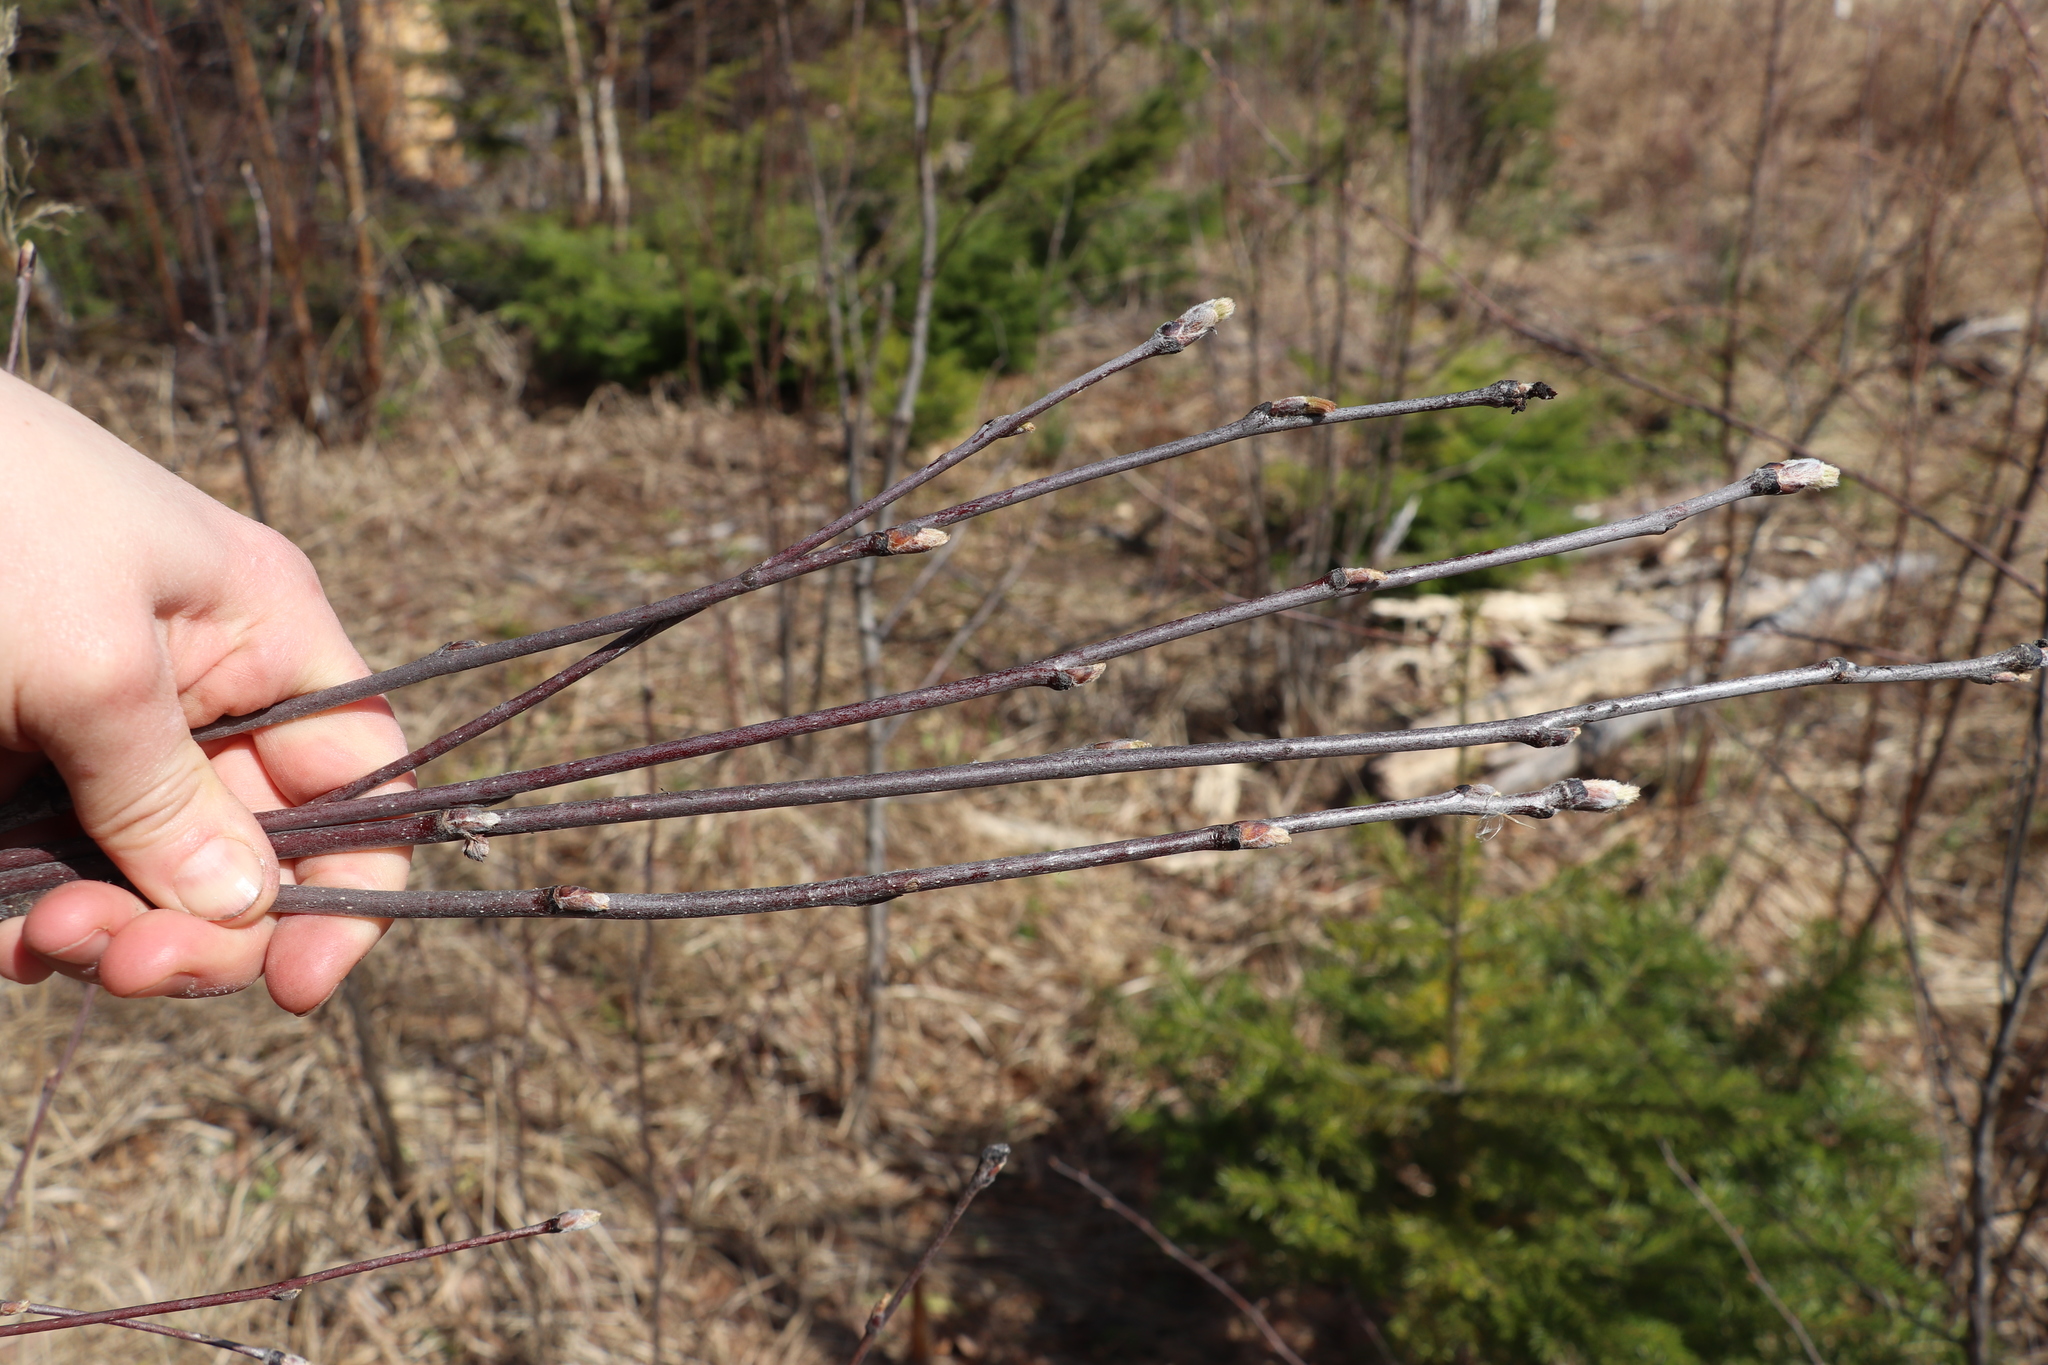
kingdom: Plantae
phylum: Tracheophyta
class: Magnoliopsida
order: Rosales
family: Rosaceae
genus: Sorbus
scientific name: Sorbus aucuparia
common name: Rowan
